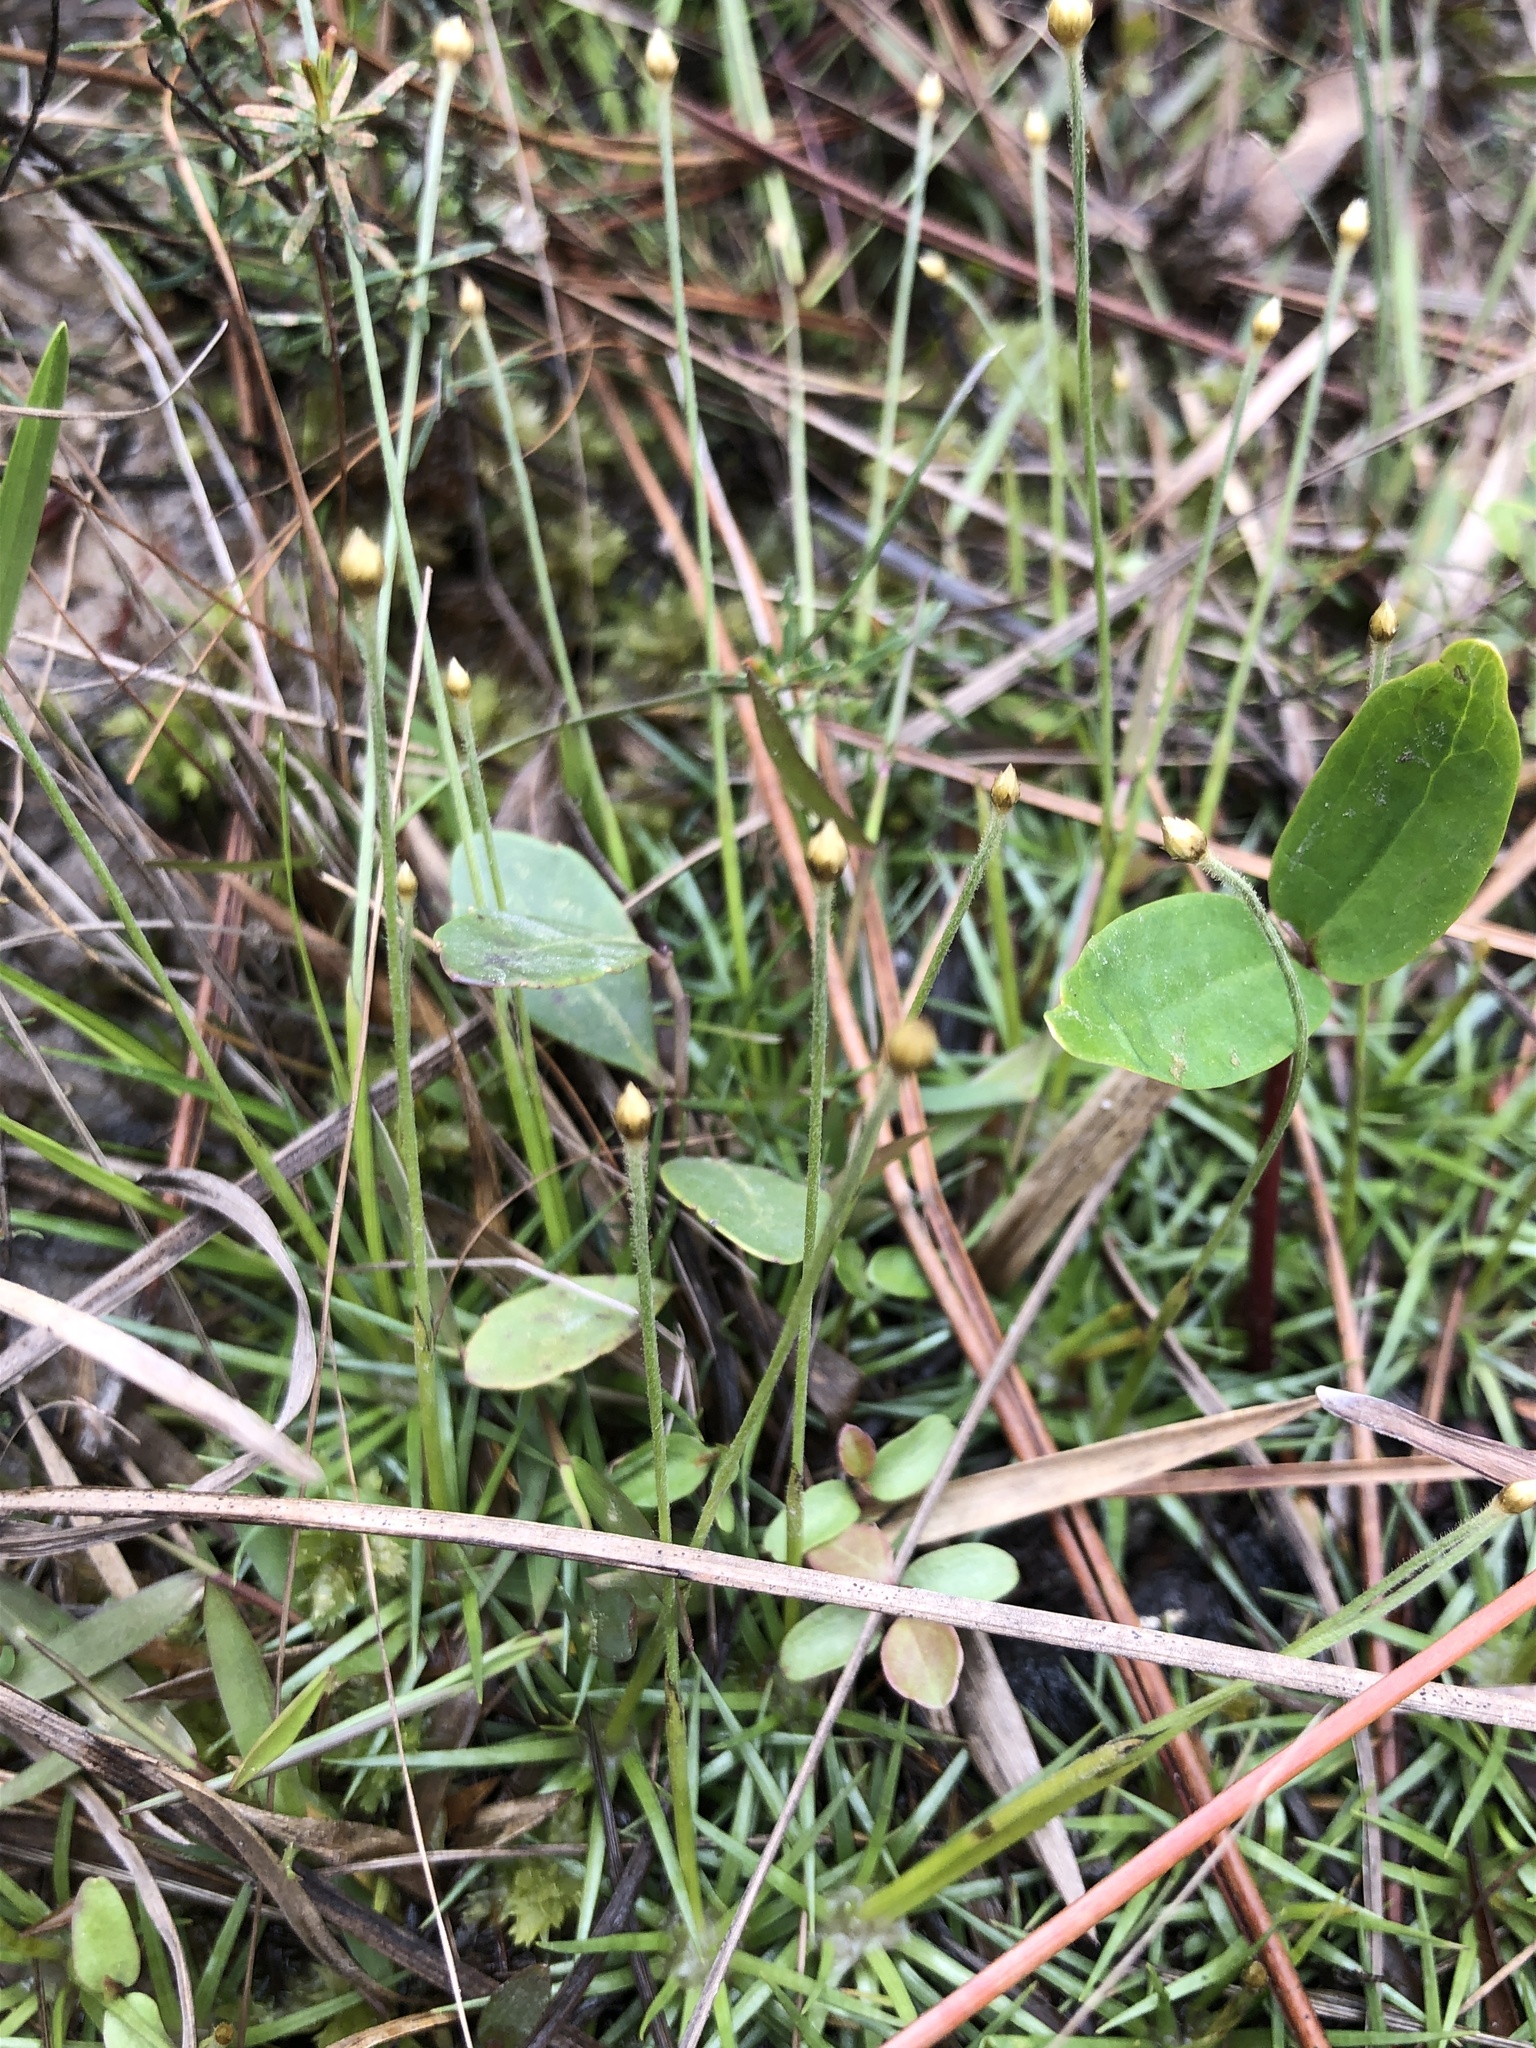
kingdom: Plantae
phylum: Tracheophyta
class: Liliopsida
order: Poales
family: Eriocaulaceae
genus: Syngonanthus
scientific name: Syngonanthus flavidulus
